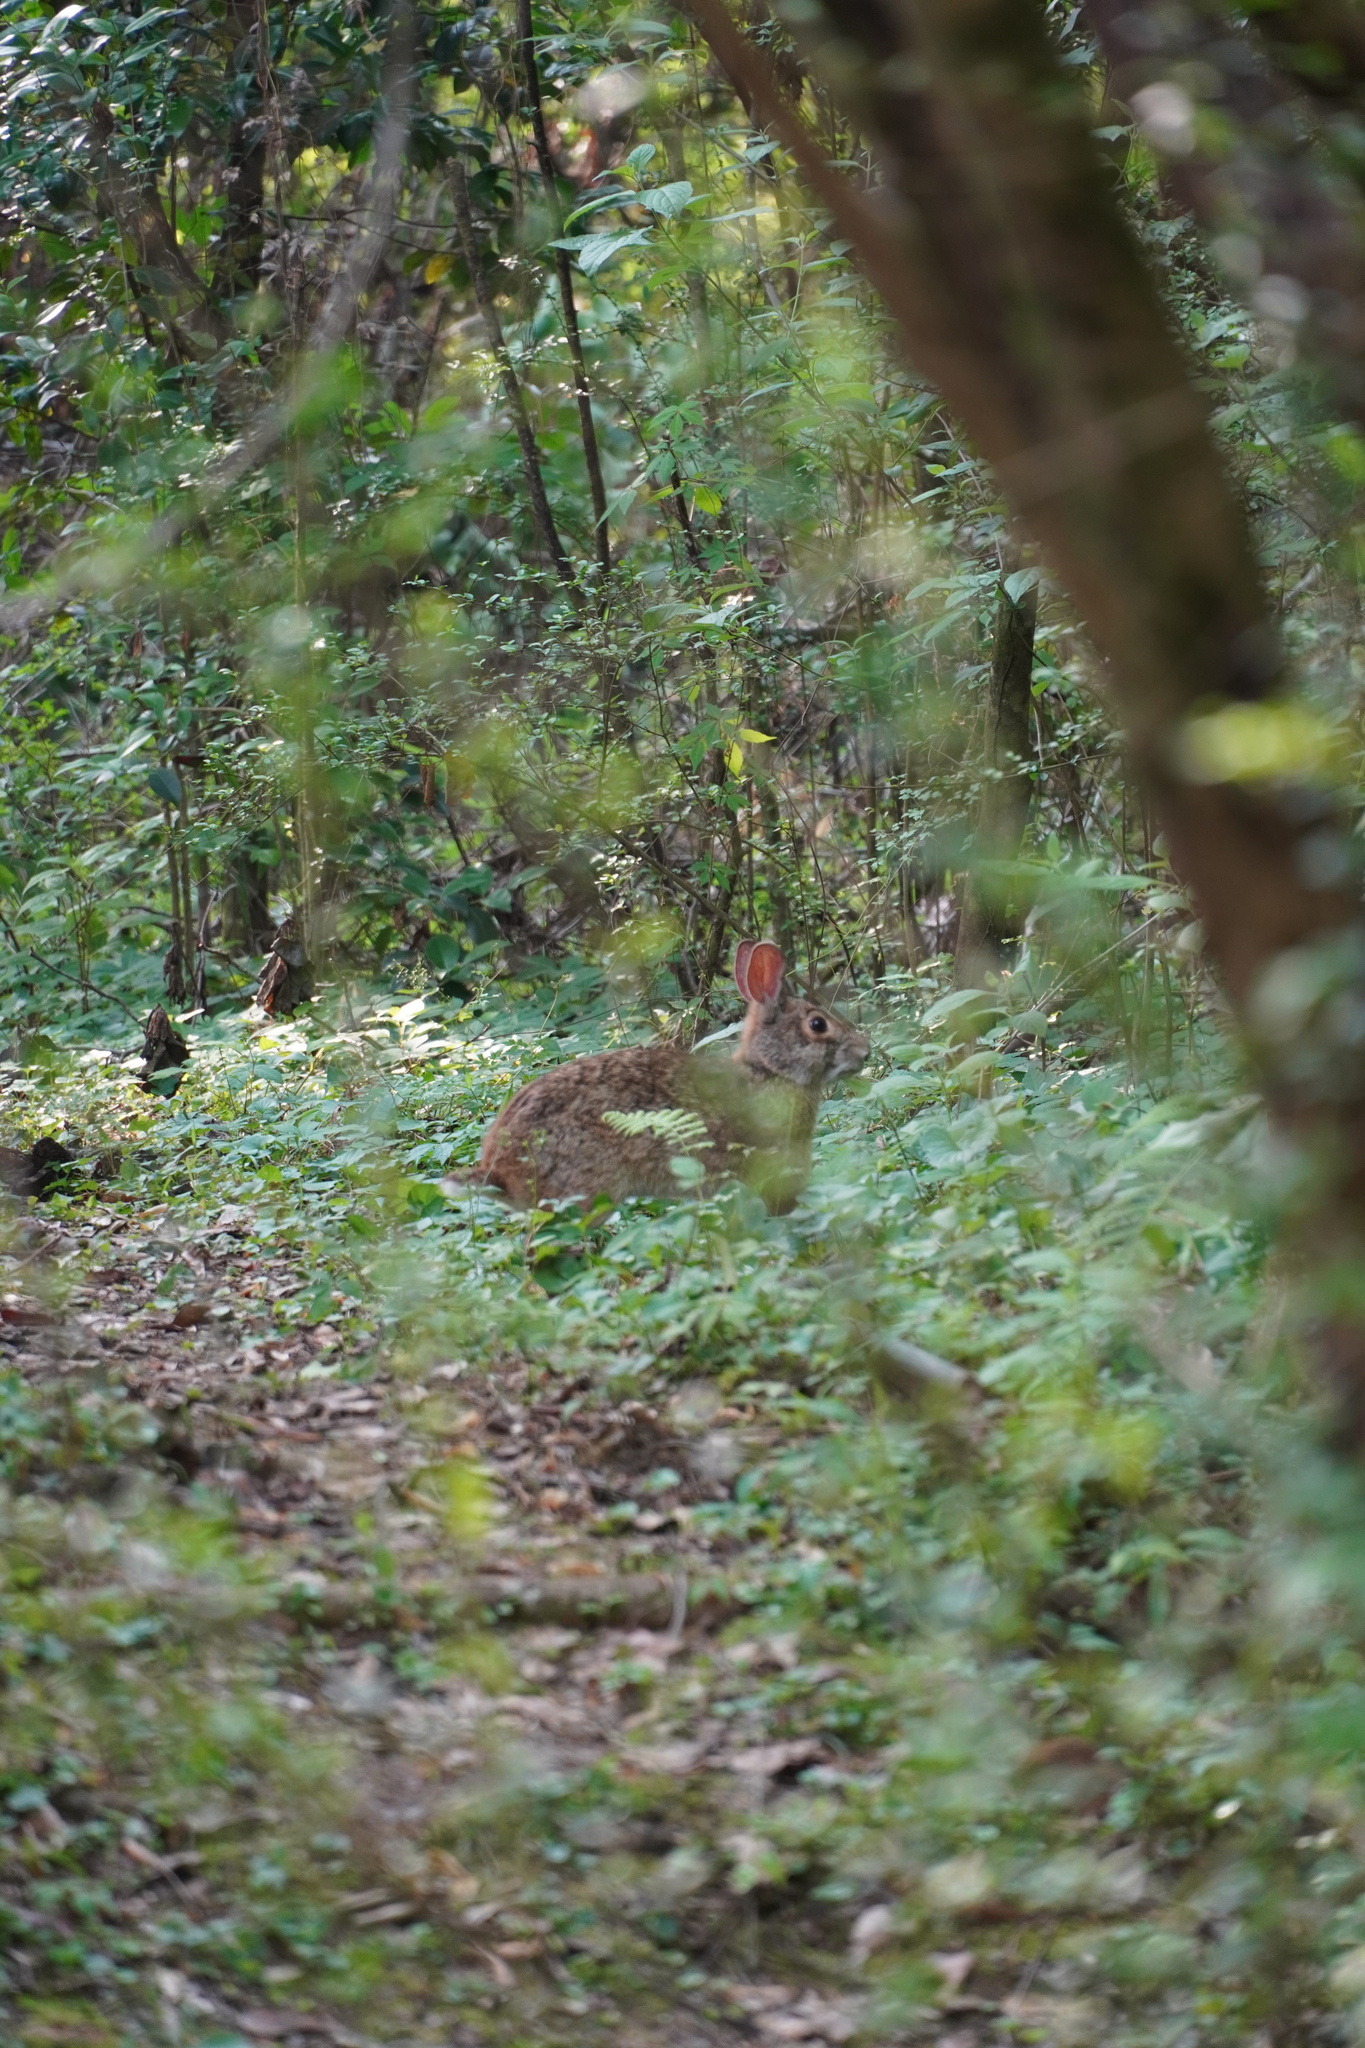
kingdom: Animalia
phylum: Chordata
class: Mammalia
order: Lagomorpha
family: Leporidae
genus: Sylvilagus
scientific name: Sylvilagus aquaticus
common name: Swamp rabbit
